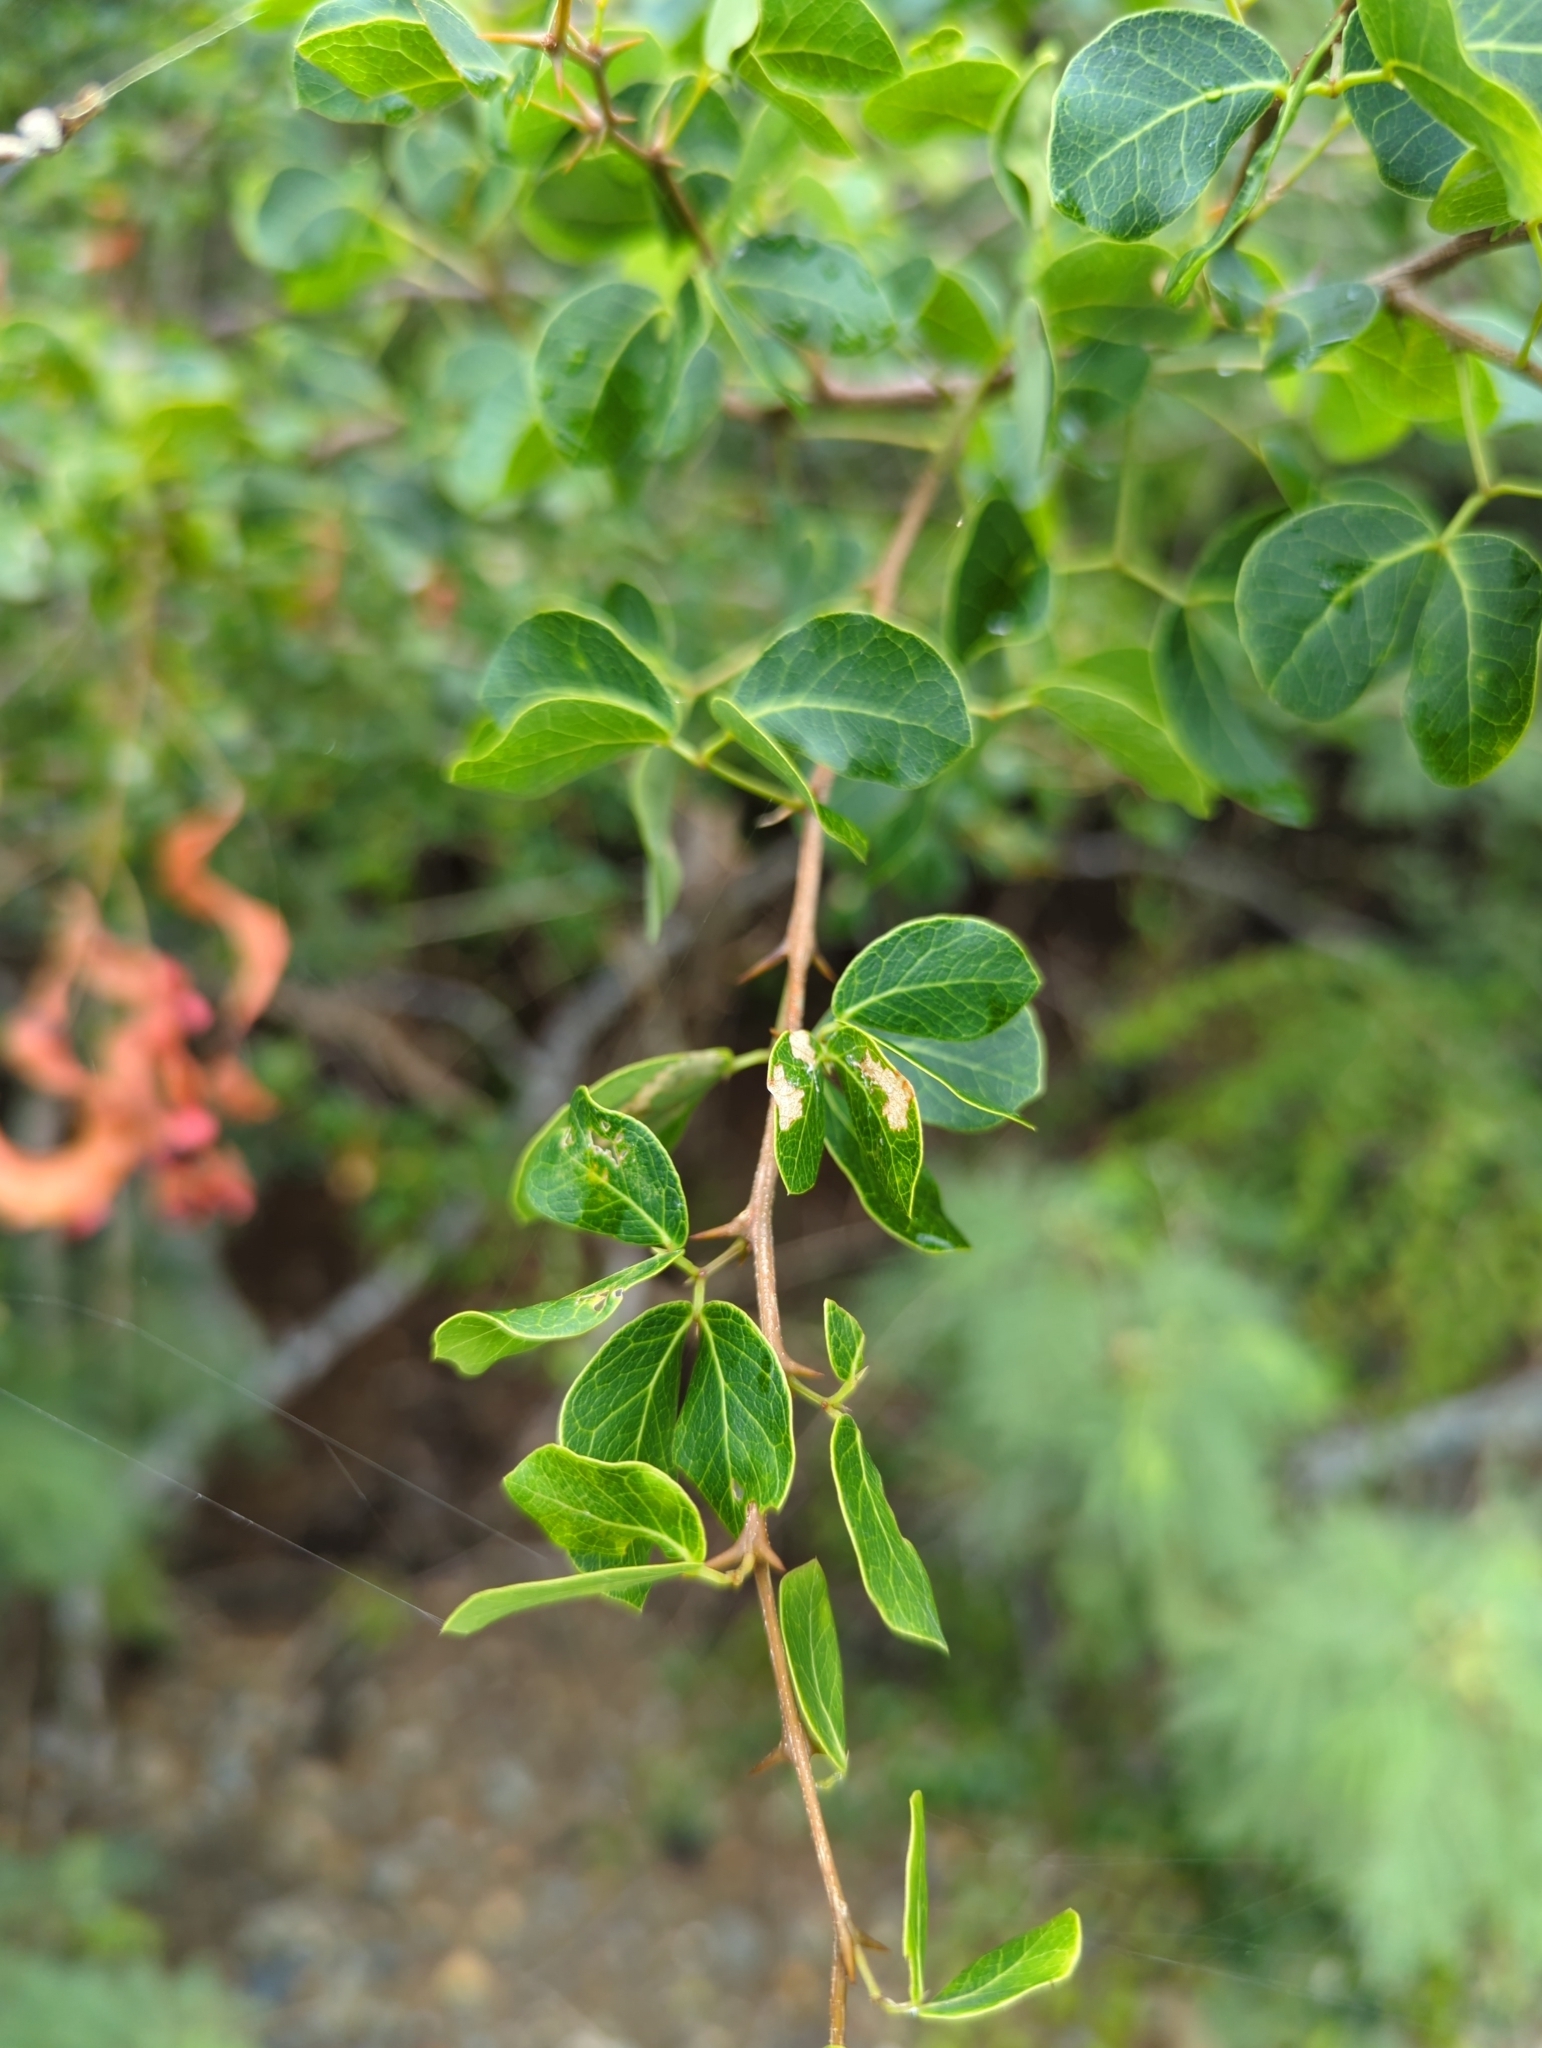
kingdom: Plantae
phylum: Tracheophyta
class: Magnoliopsida
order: Fabales
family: Fabaceae
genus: Pithecellobium
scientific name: Pithecellobium unguis-cati
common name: Cat's-claw
